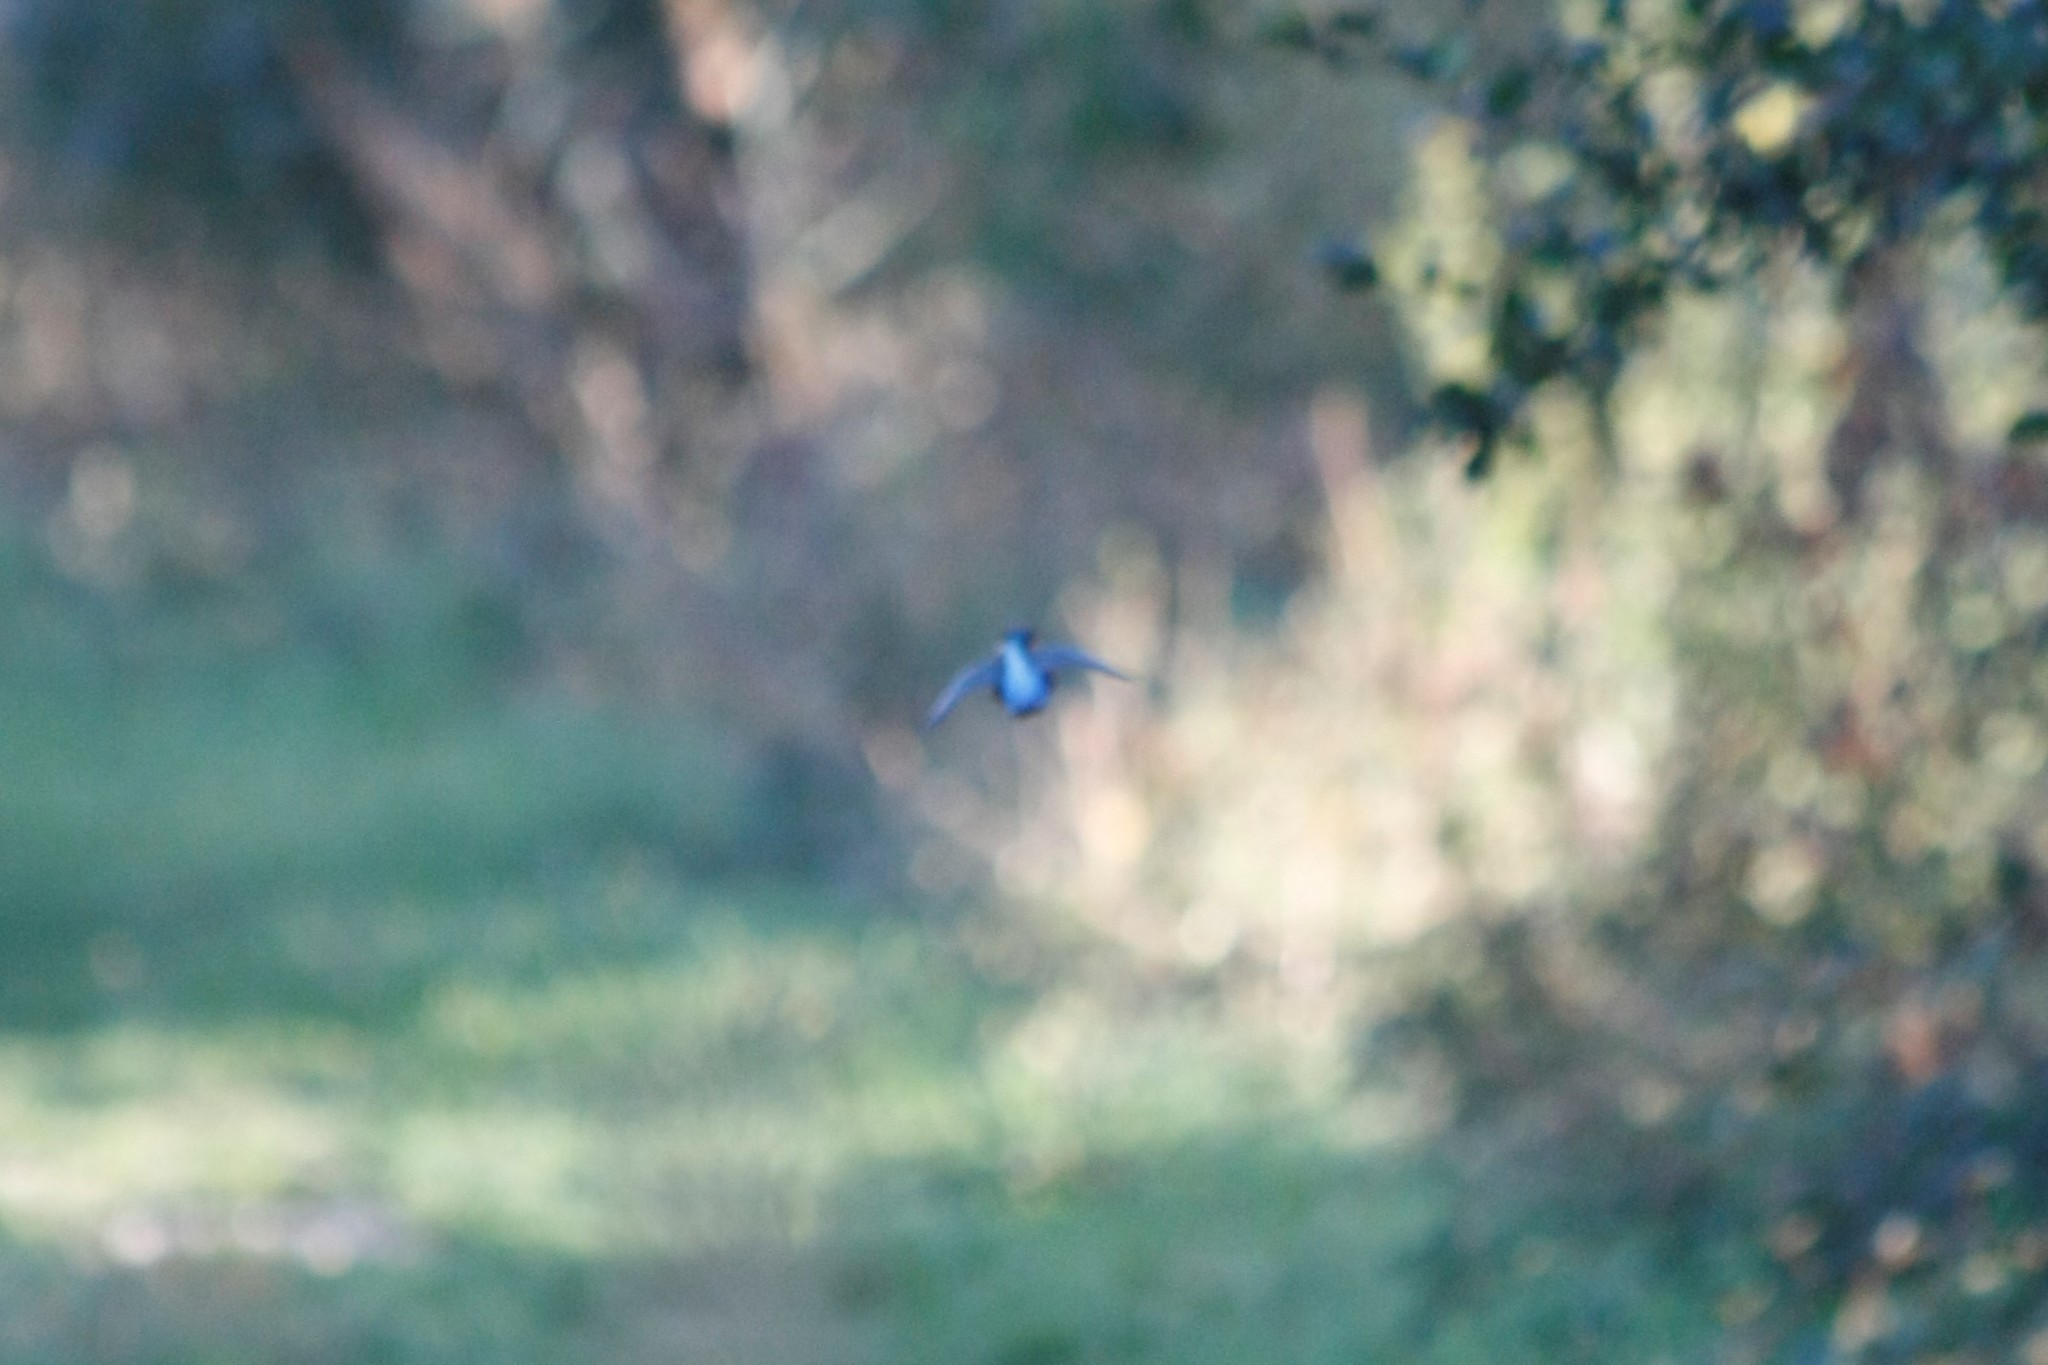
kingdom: Animalia
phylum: Chordata
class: Aves
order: Coraciiformes
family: Alcedinidae
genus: Alcedo
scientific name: Alcedo atthis
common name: Common kingfisher
